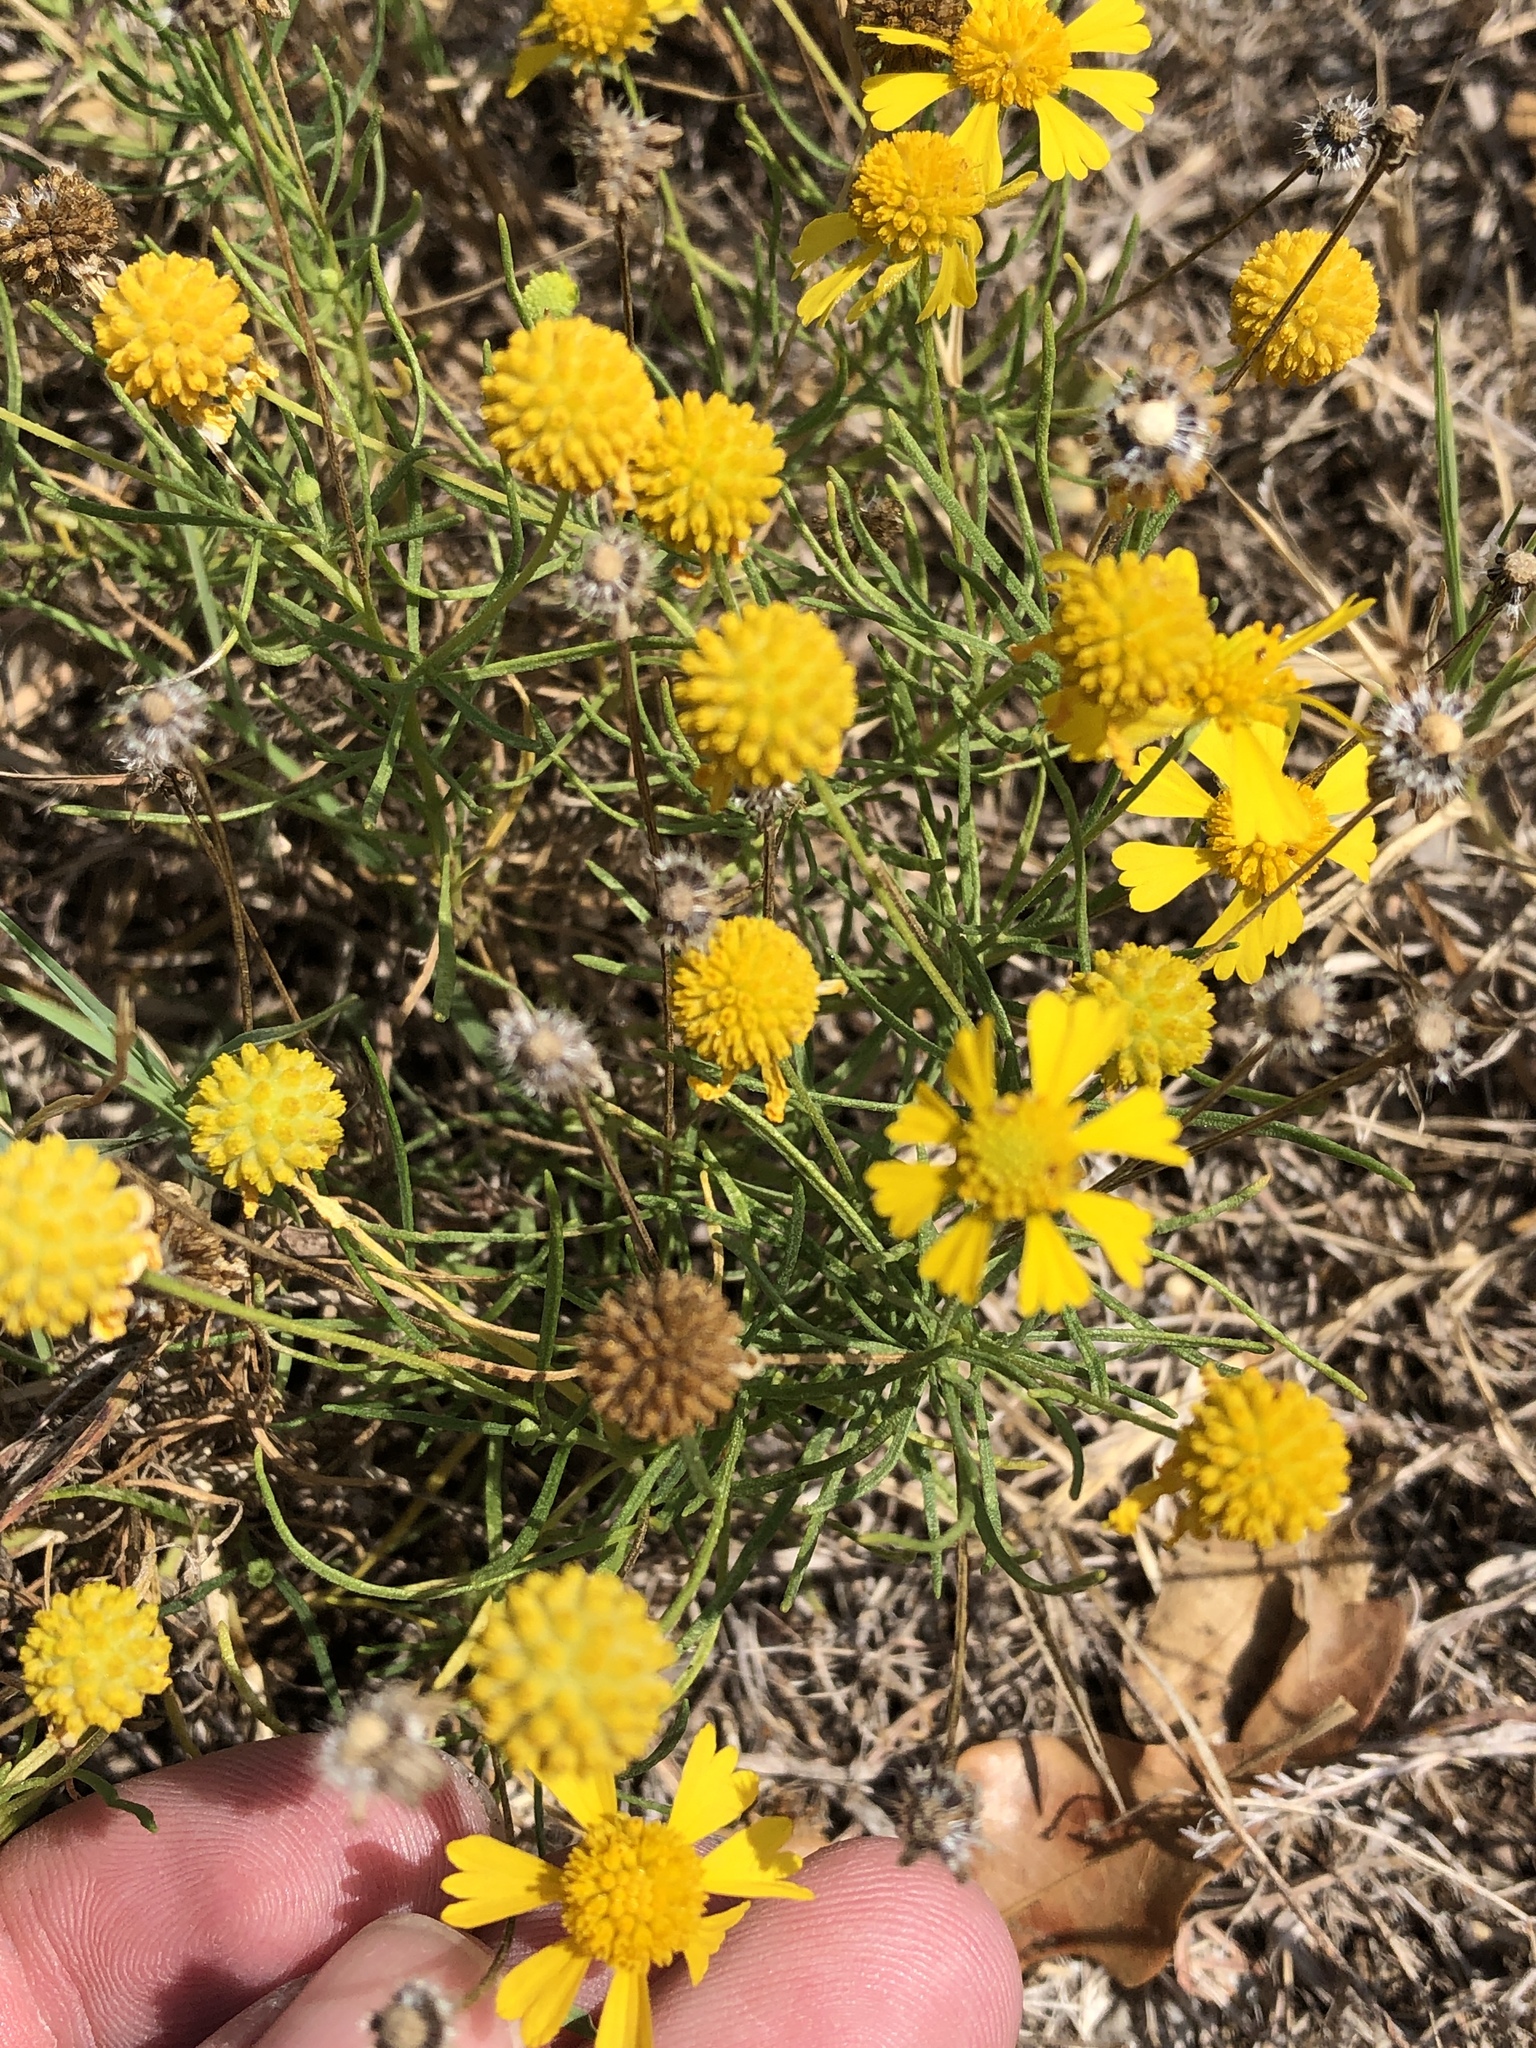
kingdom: Plantae
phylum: Tracheophyta
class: Magnoliopsida
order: Asterales
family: Asteraceae
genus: Helenium
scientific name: Helenium amarum
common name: Bitter sneezeweed
